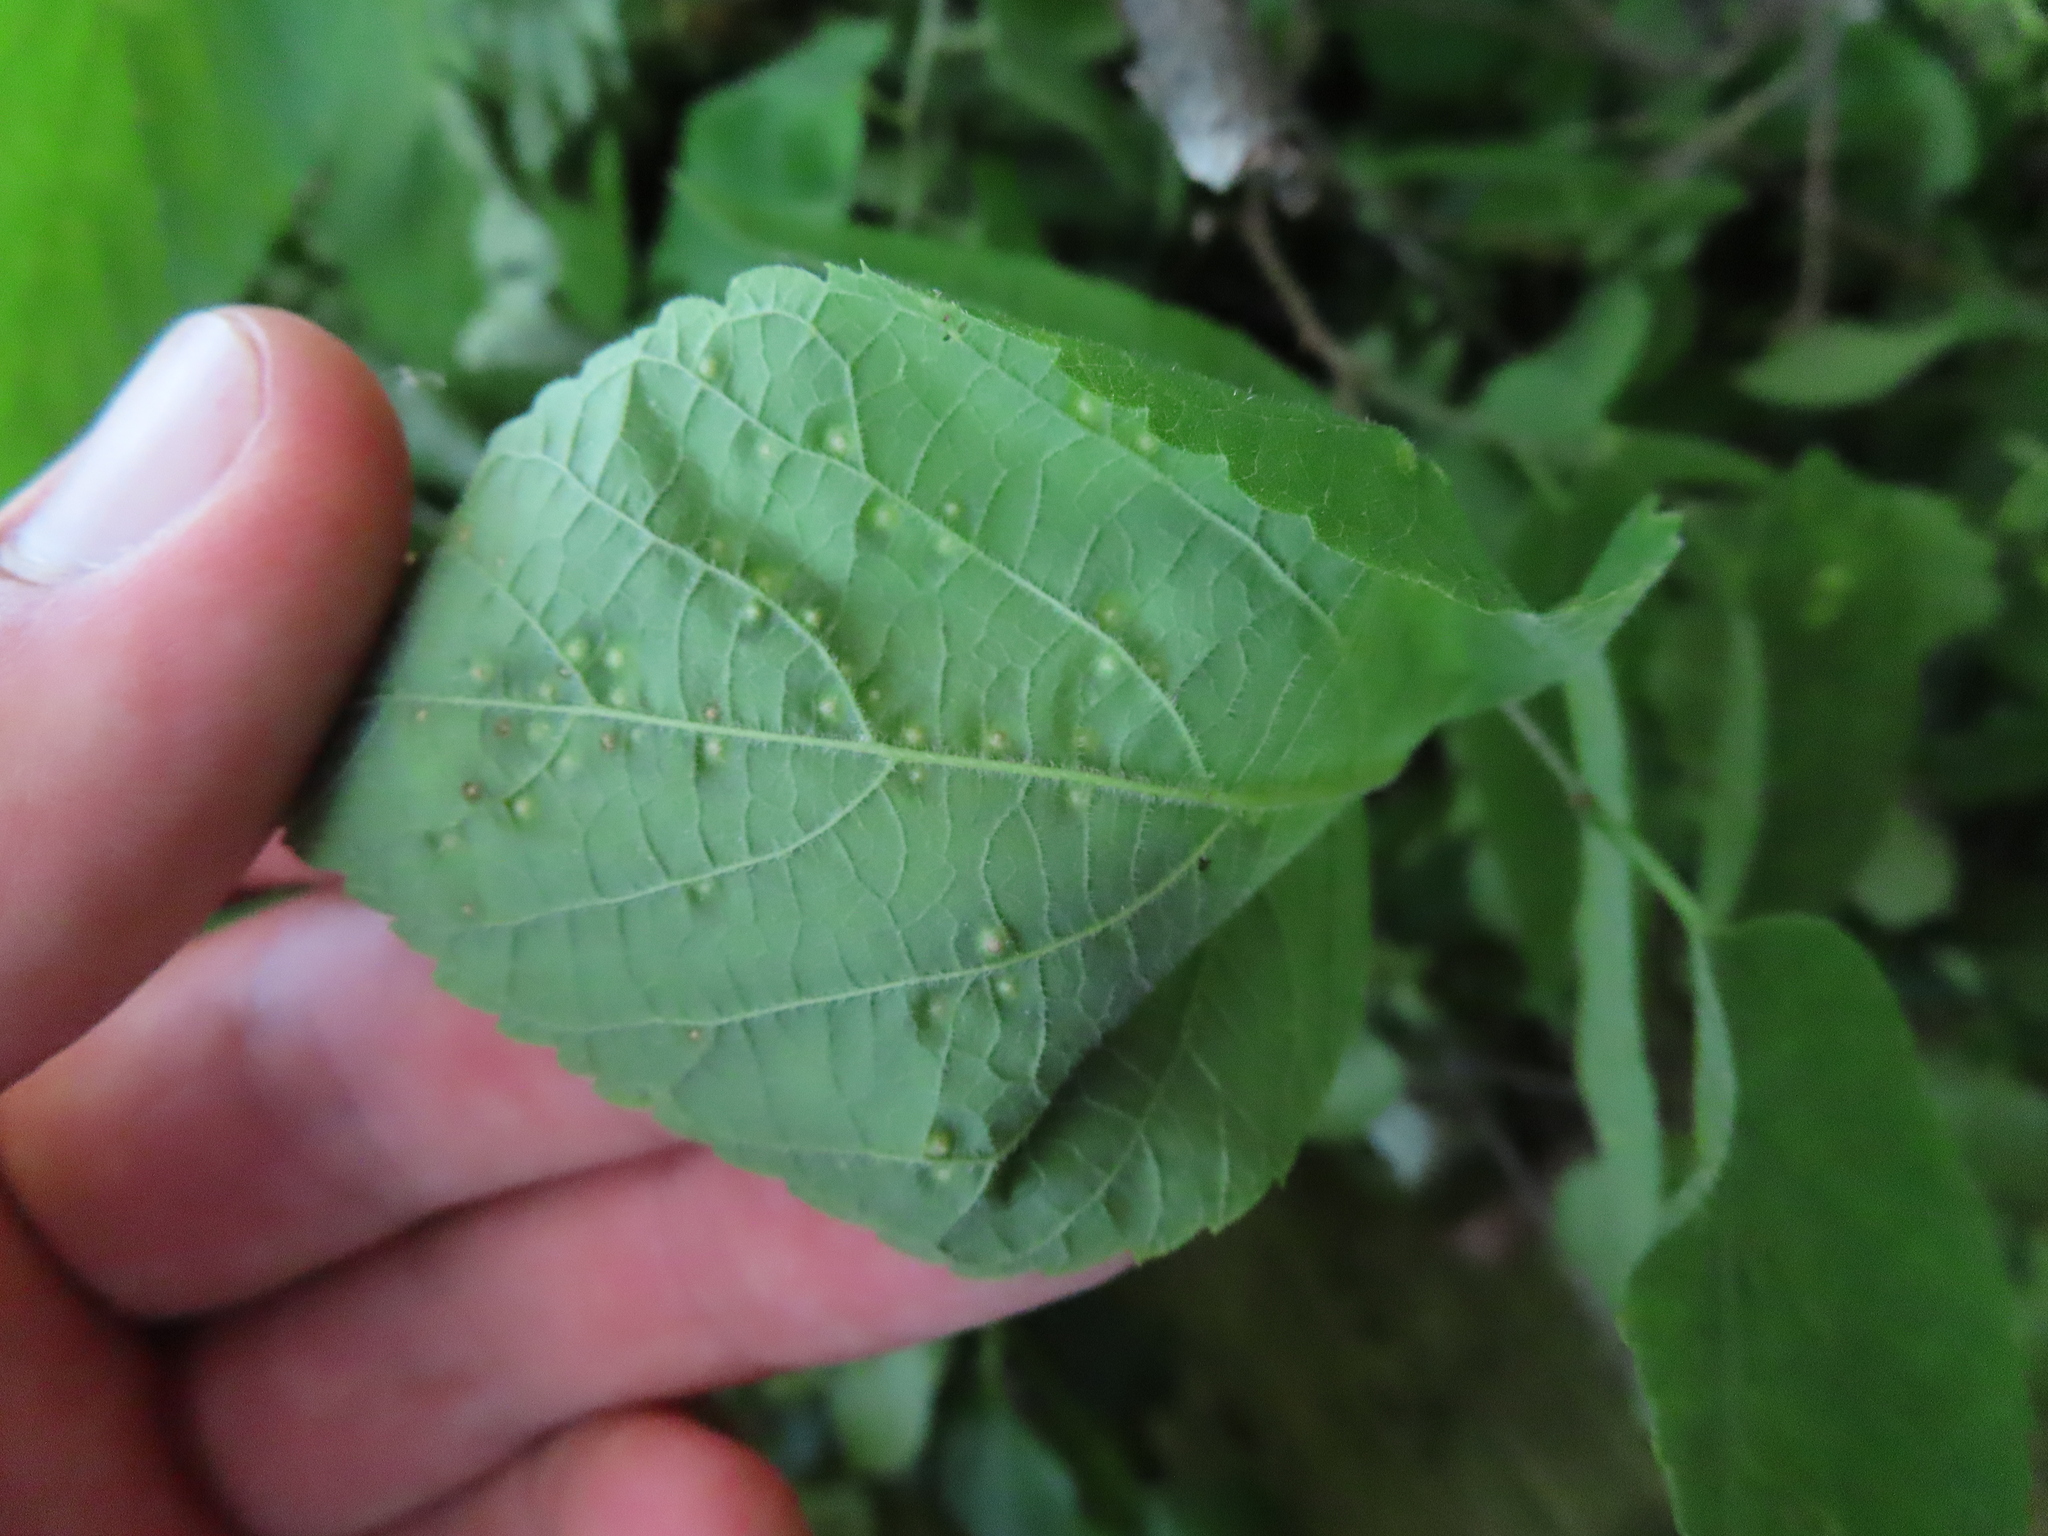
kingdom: Animalia
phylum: Arthropoda
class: Insecta
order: Hemiptera
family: Aphalaridae
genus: Pachypsylla
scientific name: Pachypsylla celtidisvesicula
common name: Hackberry blister gall psyllid
